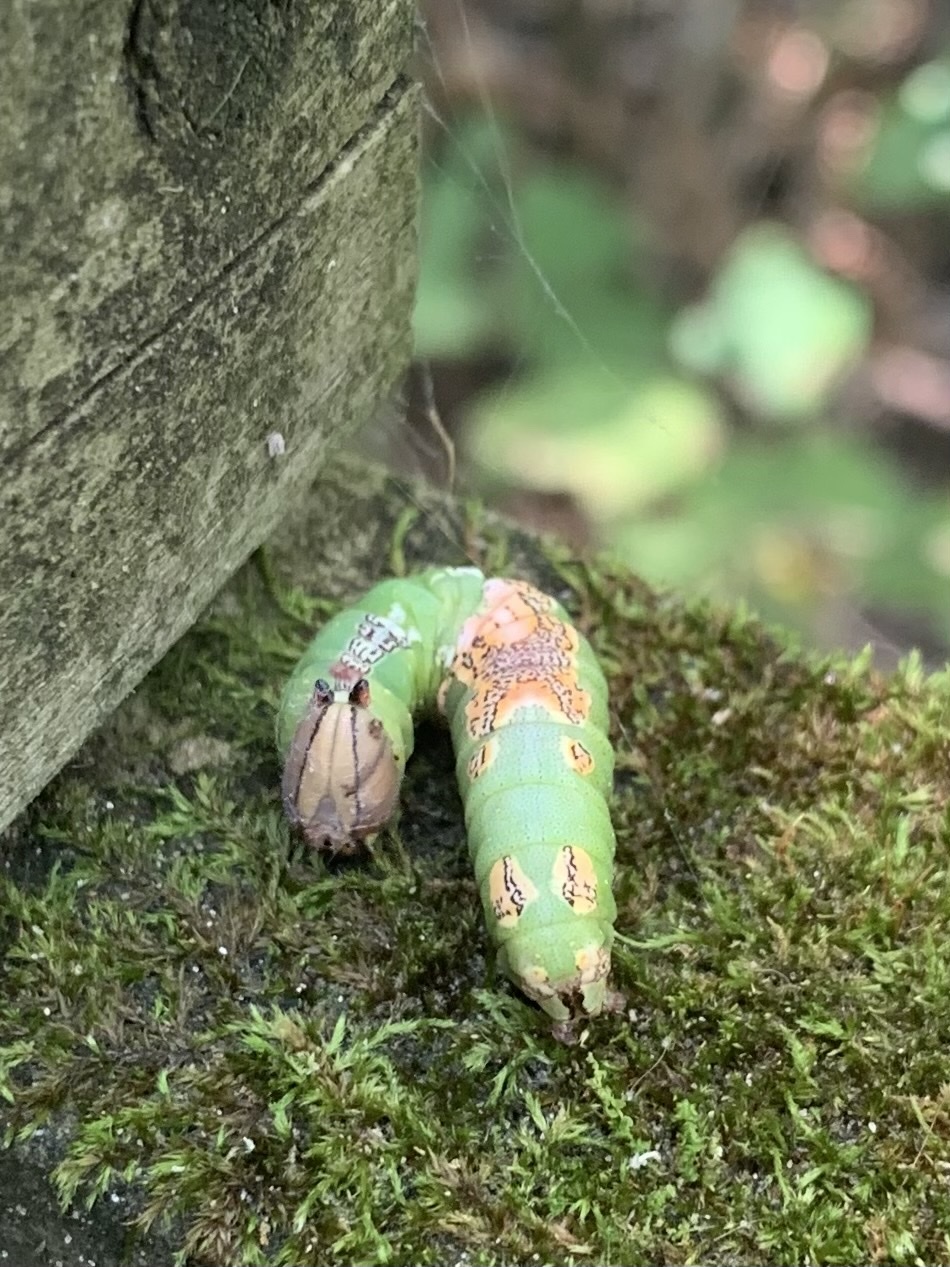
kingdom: Animalia
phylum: Arthropoda
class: Insecta
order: Lepidoptera
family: Notodontidae
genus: Heterocampa
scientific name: Heterocampa
